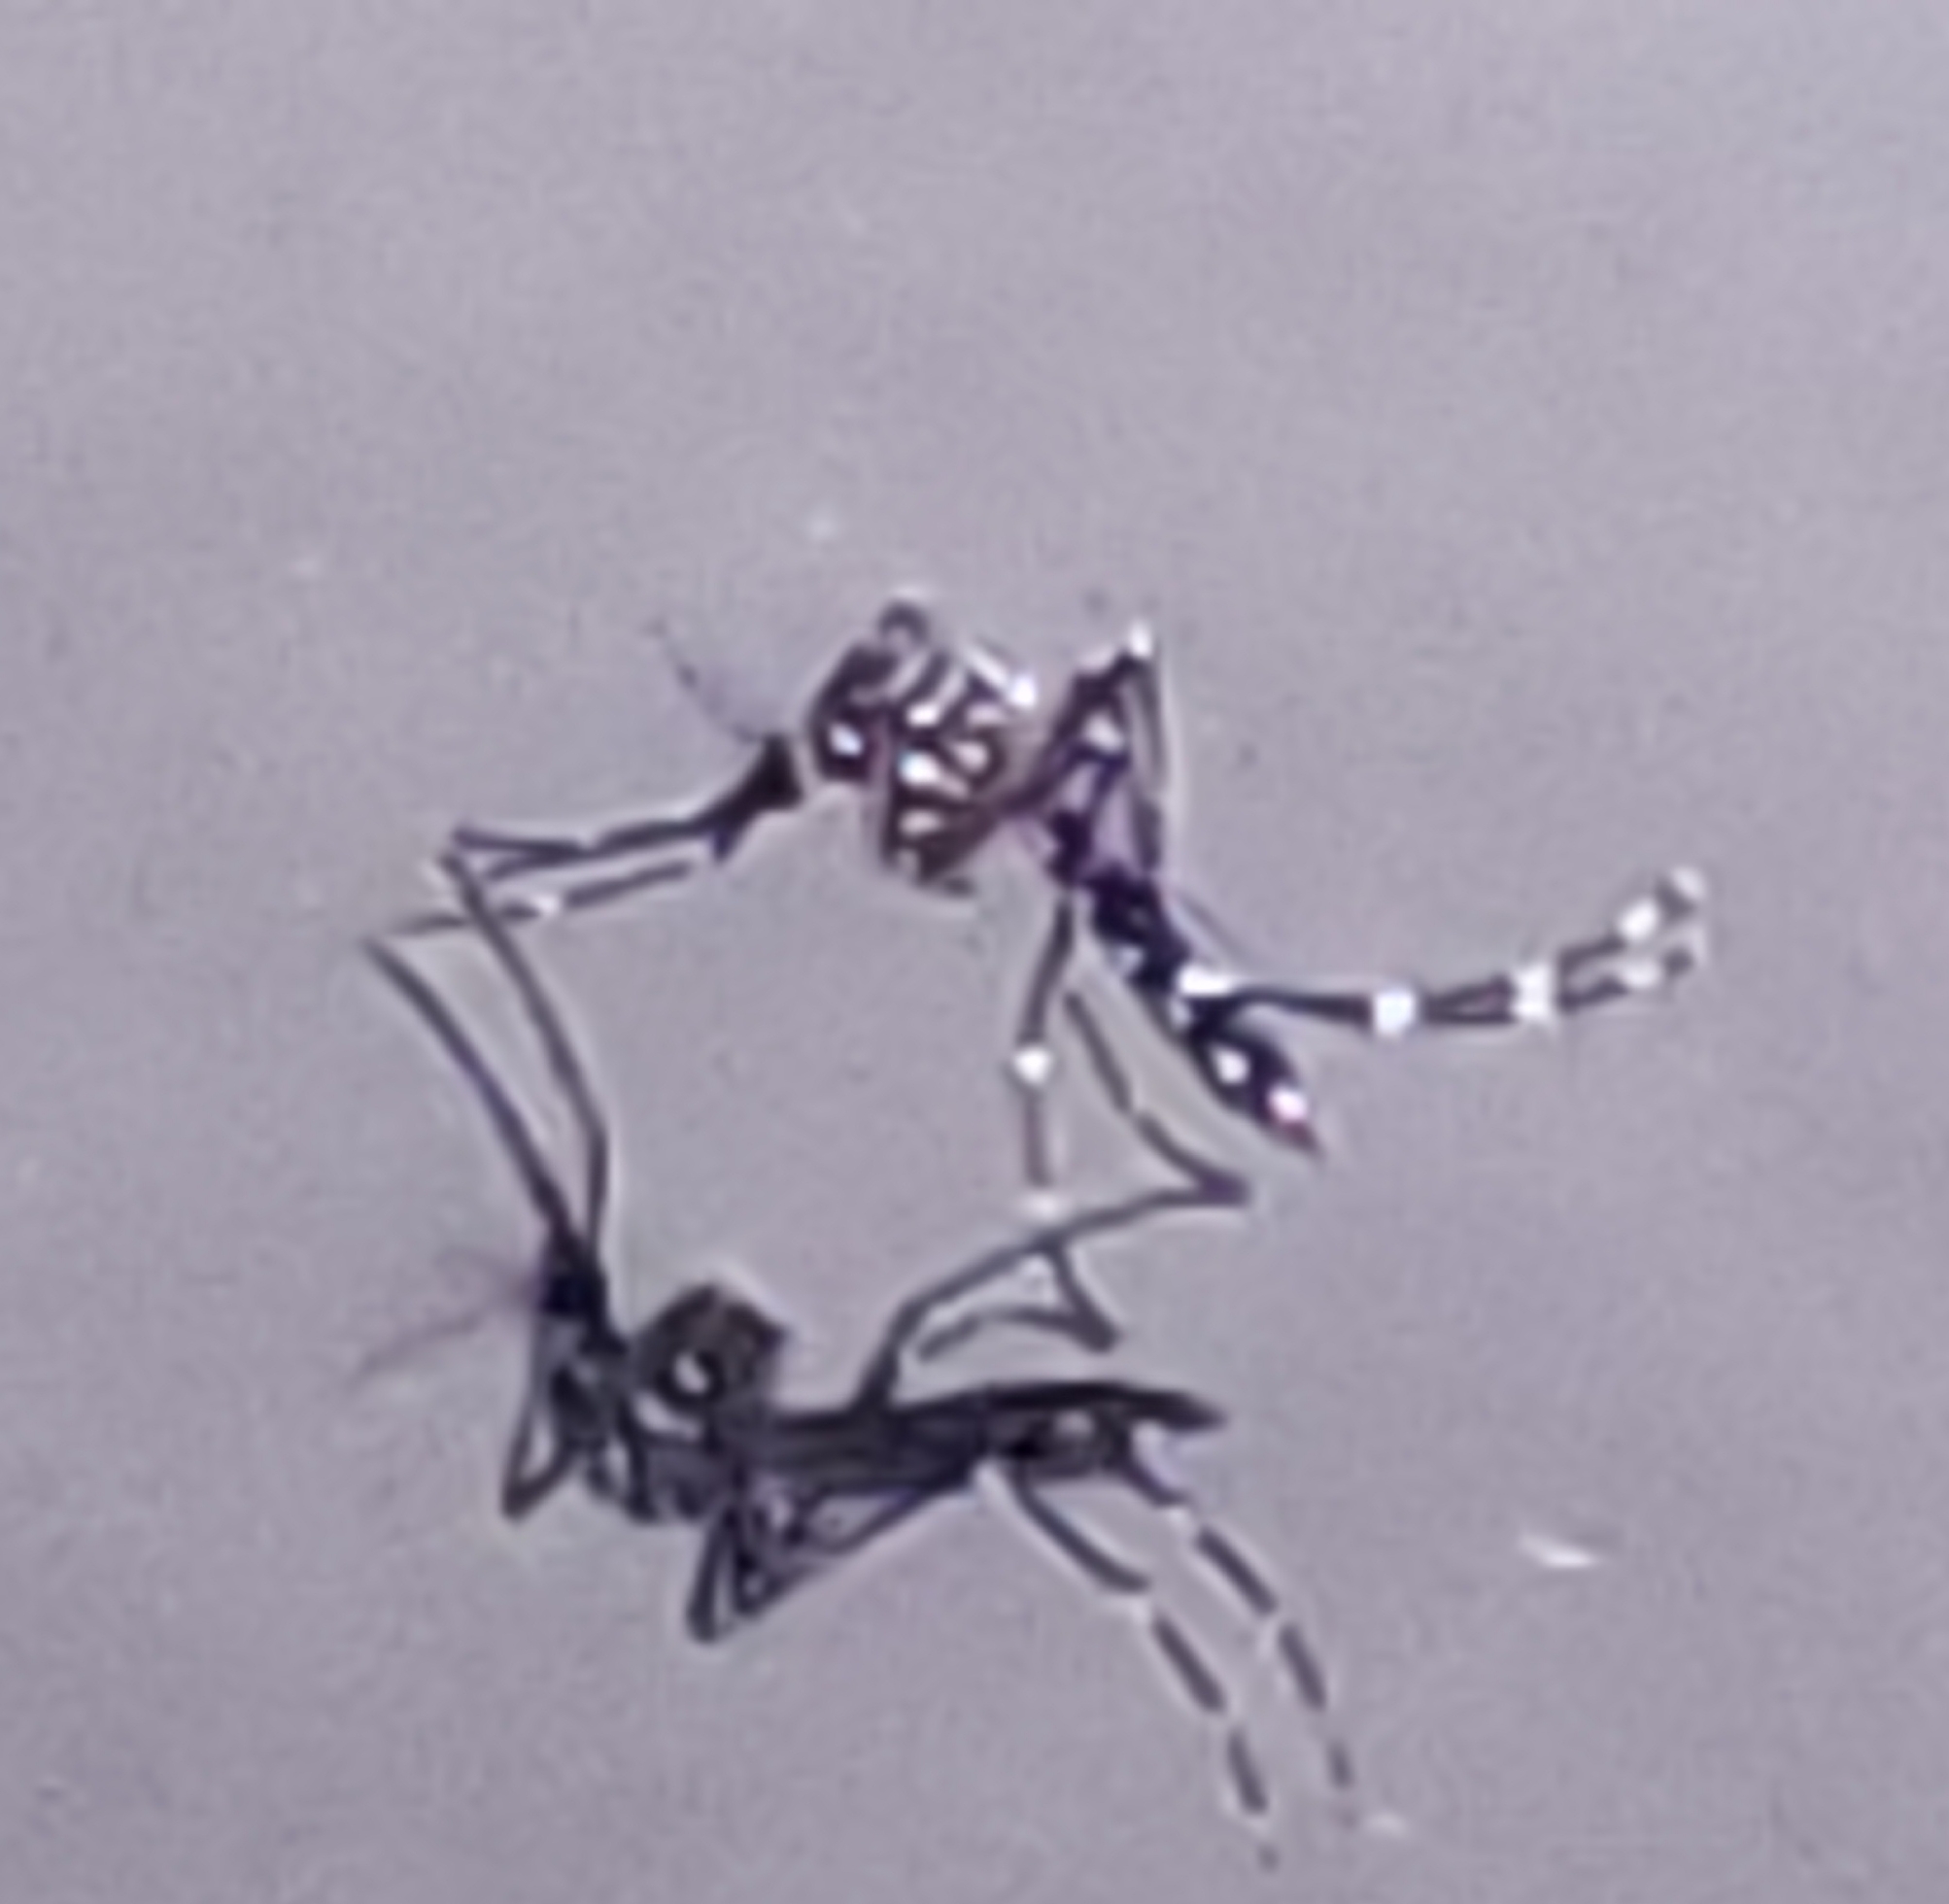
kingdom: Animalia
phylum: Arthropoda
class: Insecta
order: Diptera
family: Culicidae
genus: Aedes
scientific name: Aedes aegypti
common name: Yellow fever mosquito
